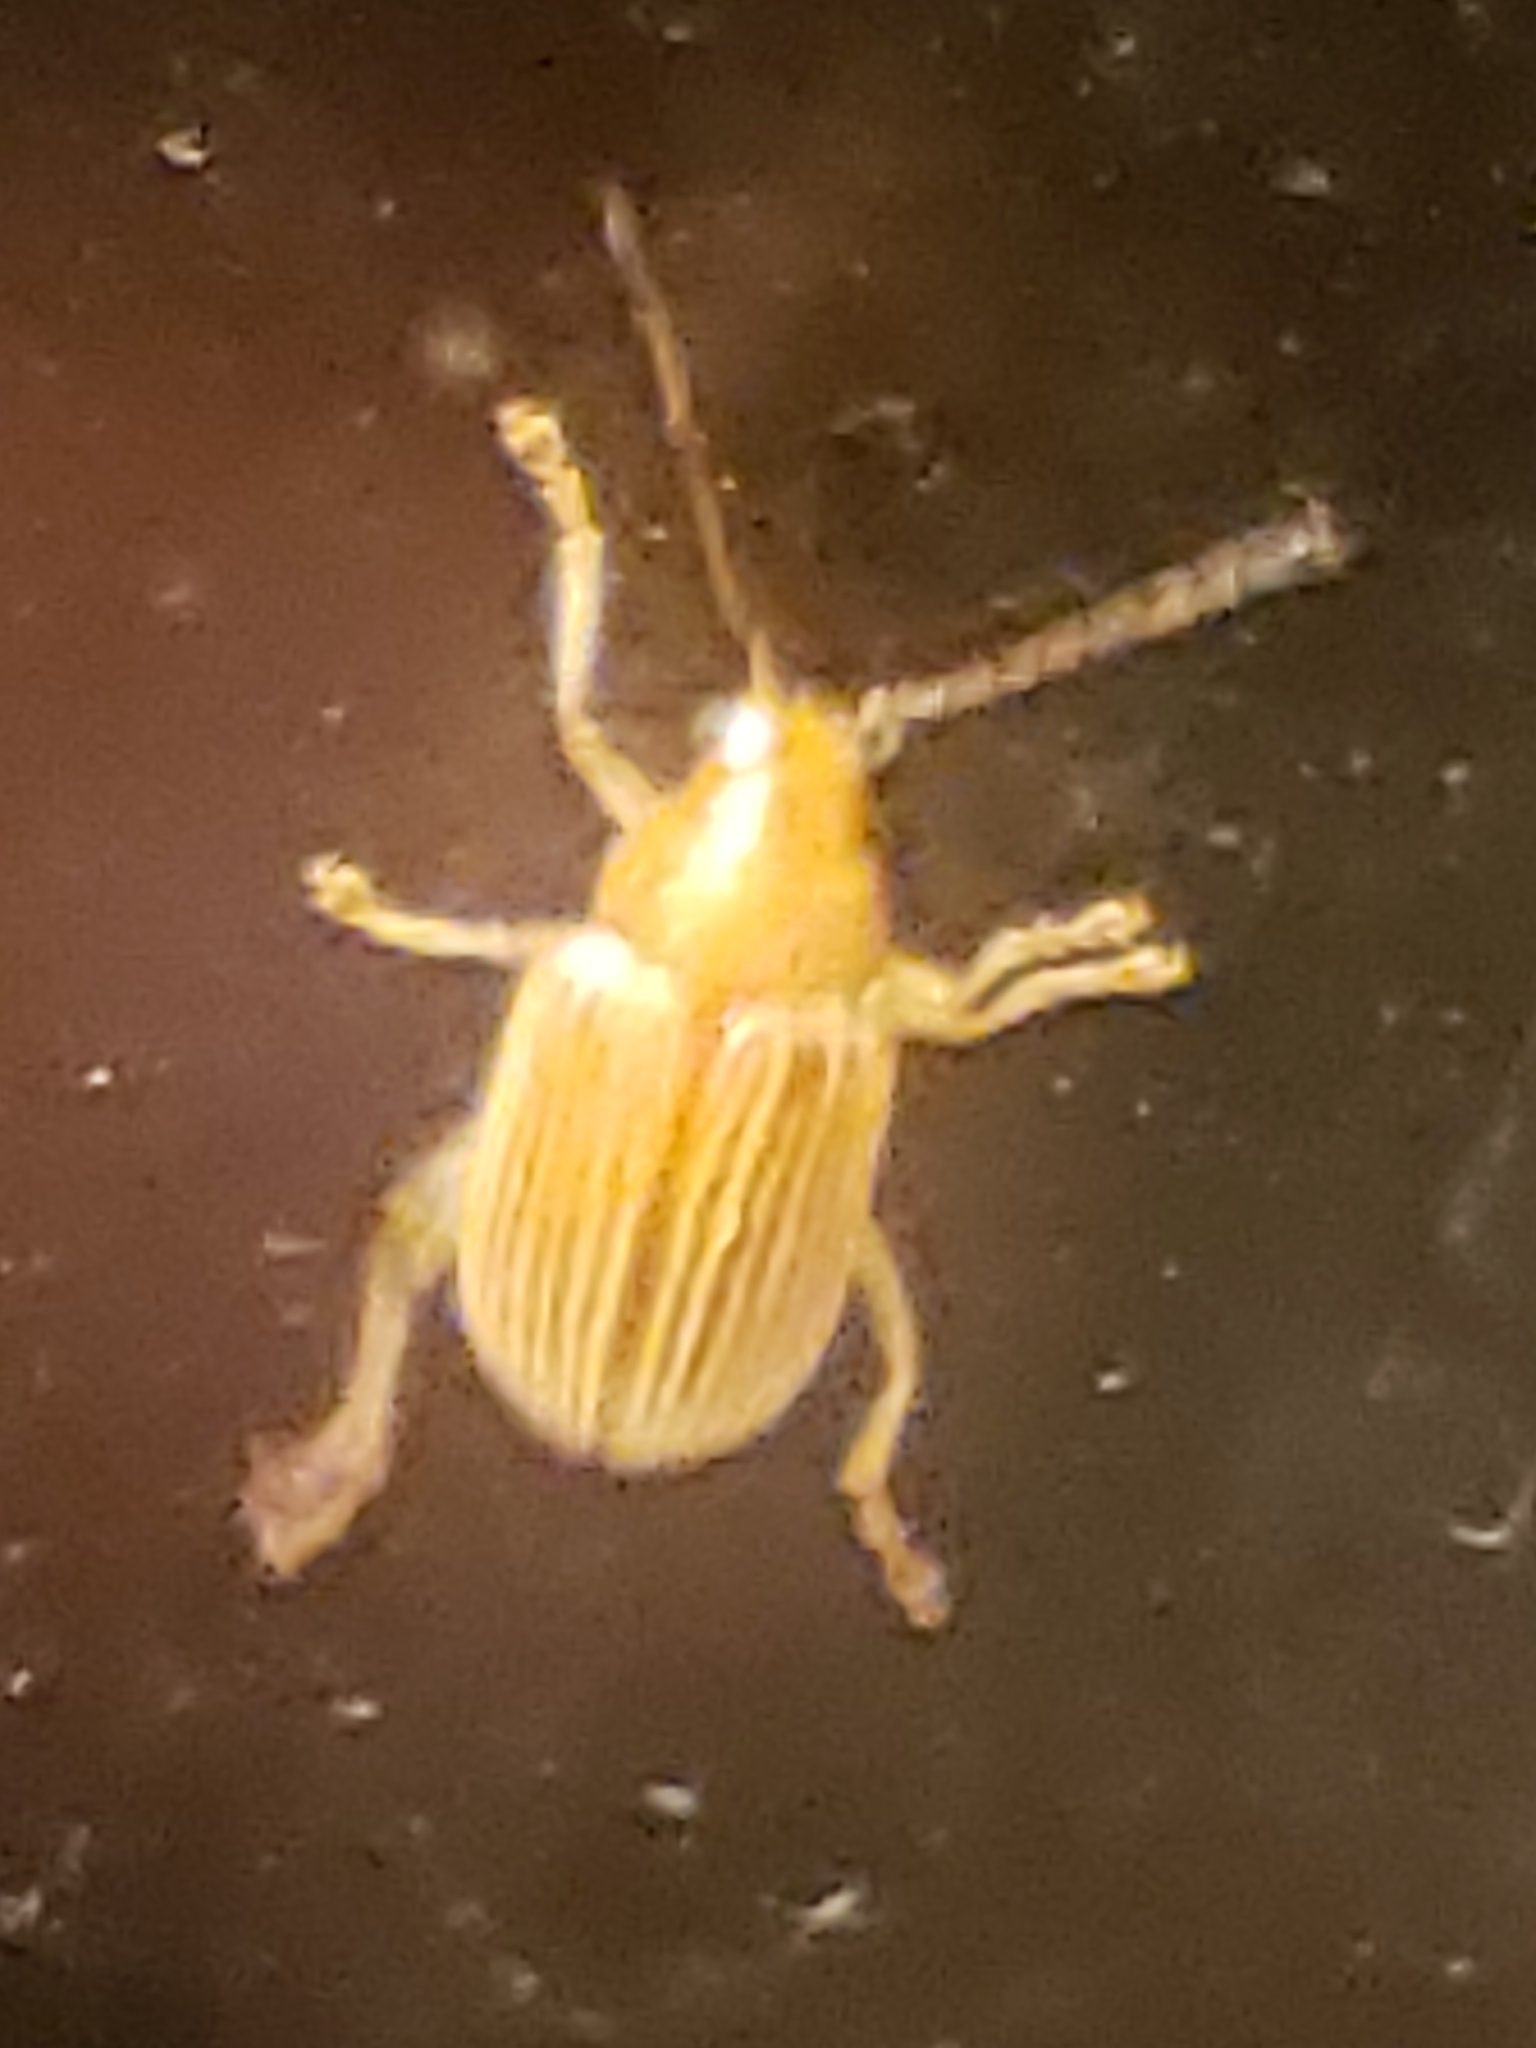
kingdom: Animalia
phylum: Arthropoda
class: Insecta
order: Coleoptera
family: Chrysomelidae
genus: Colaspis
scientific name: Colaspis brunnea
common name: Grape colaspis
